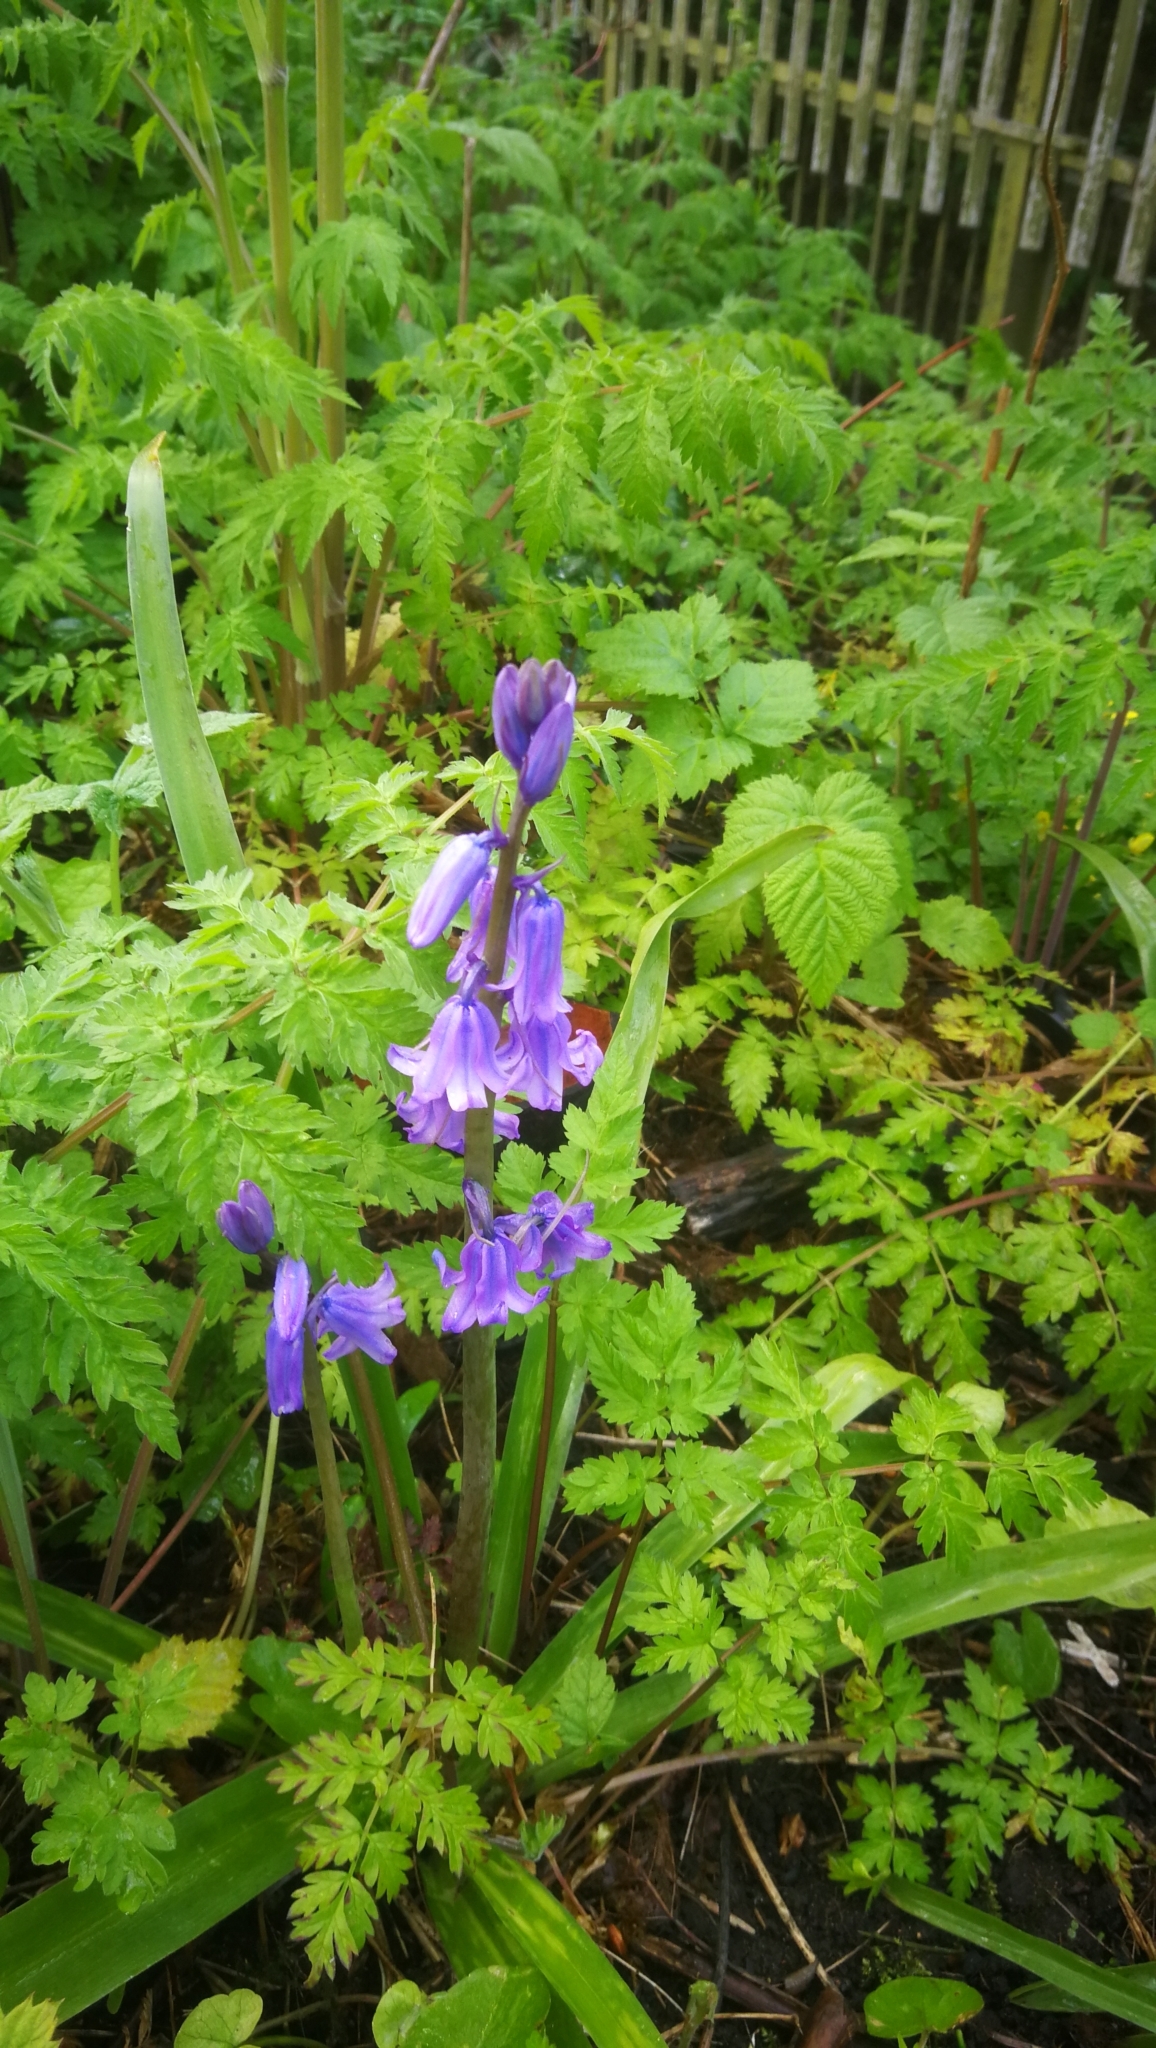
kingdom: Plantae
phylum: Tracheophyta
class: Liliopsida
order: Asparagales
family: Asparagaceae
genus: Hyacinthoides
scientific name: Hyacinthoides hispanica
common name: Spanish bluebell
